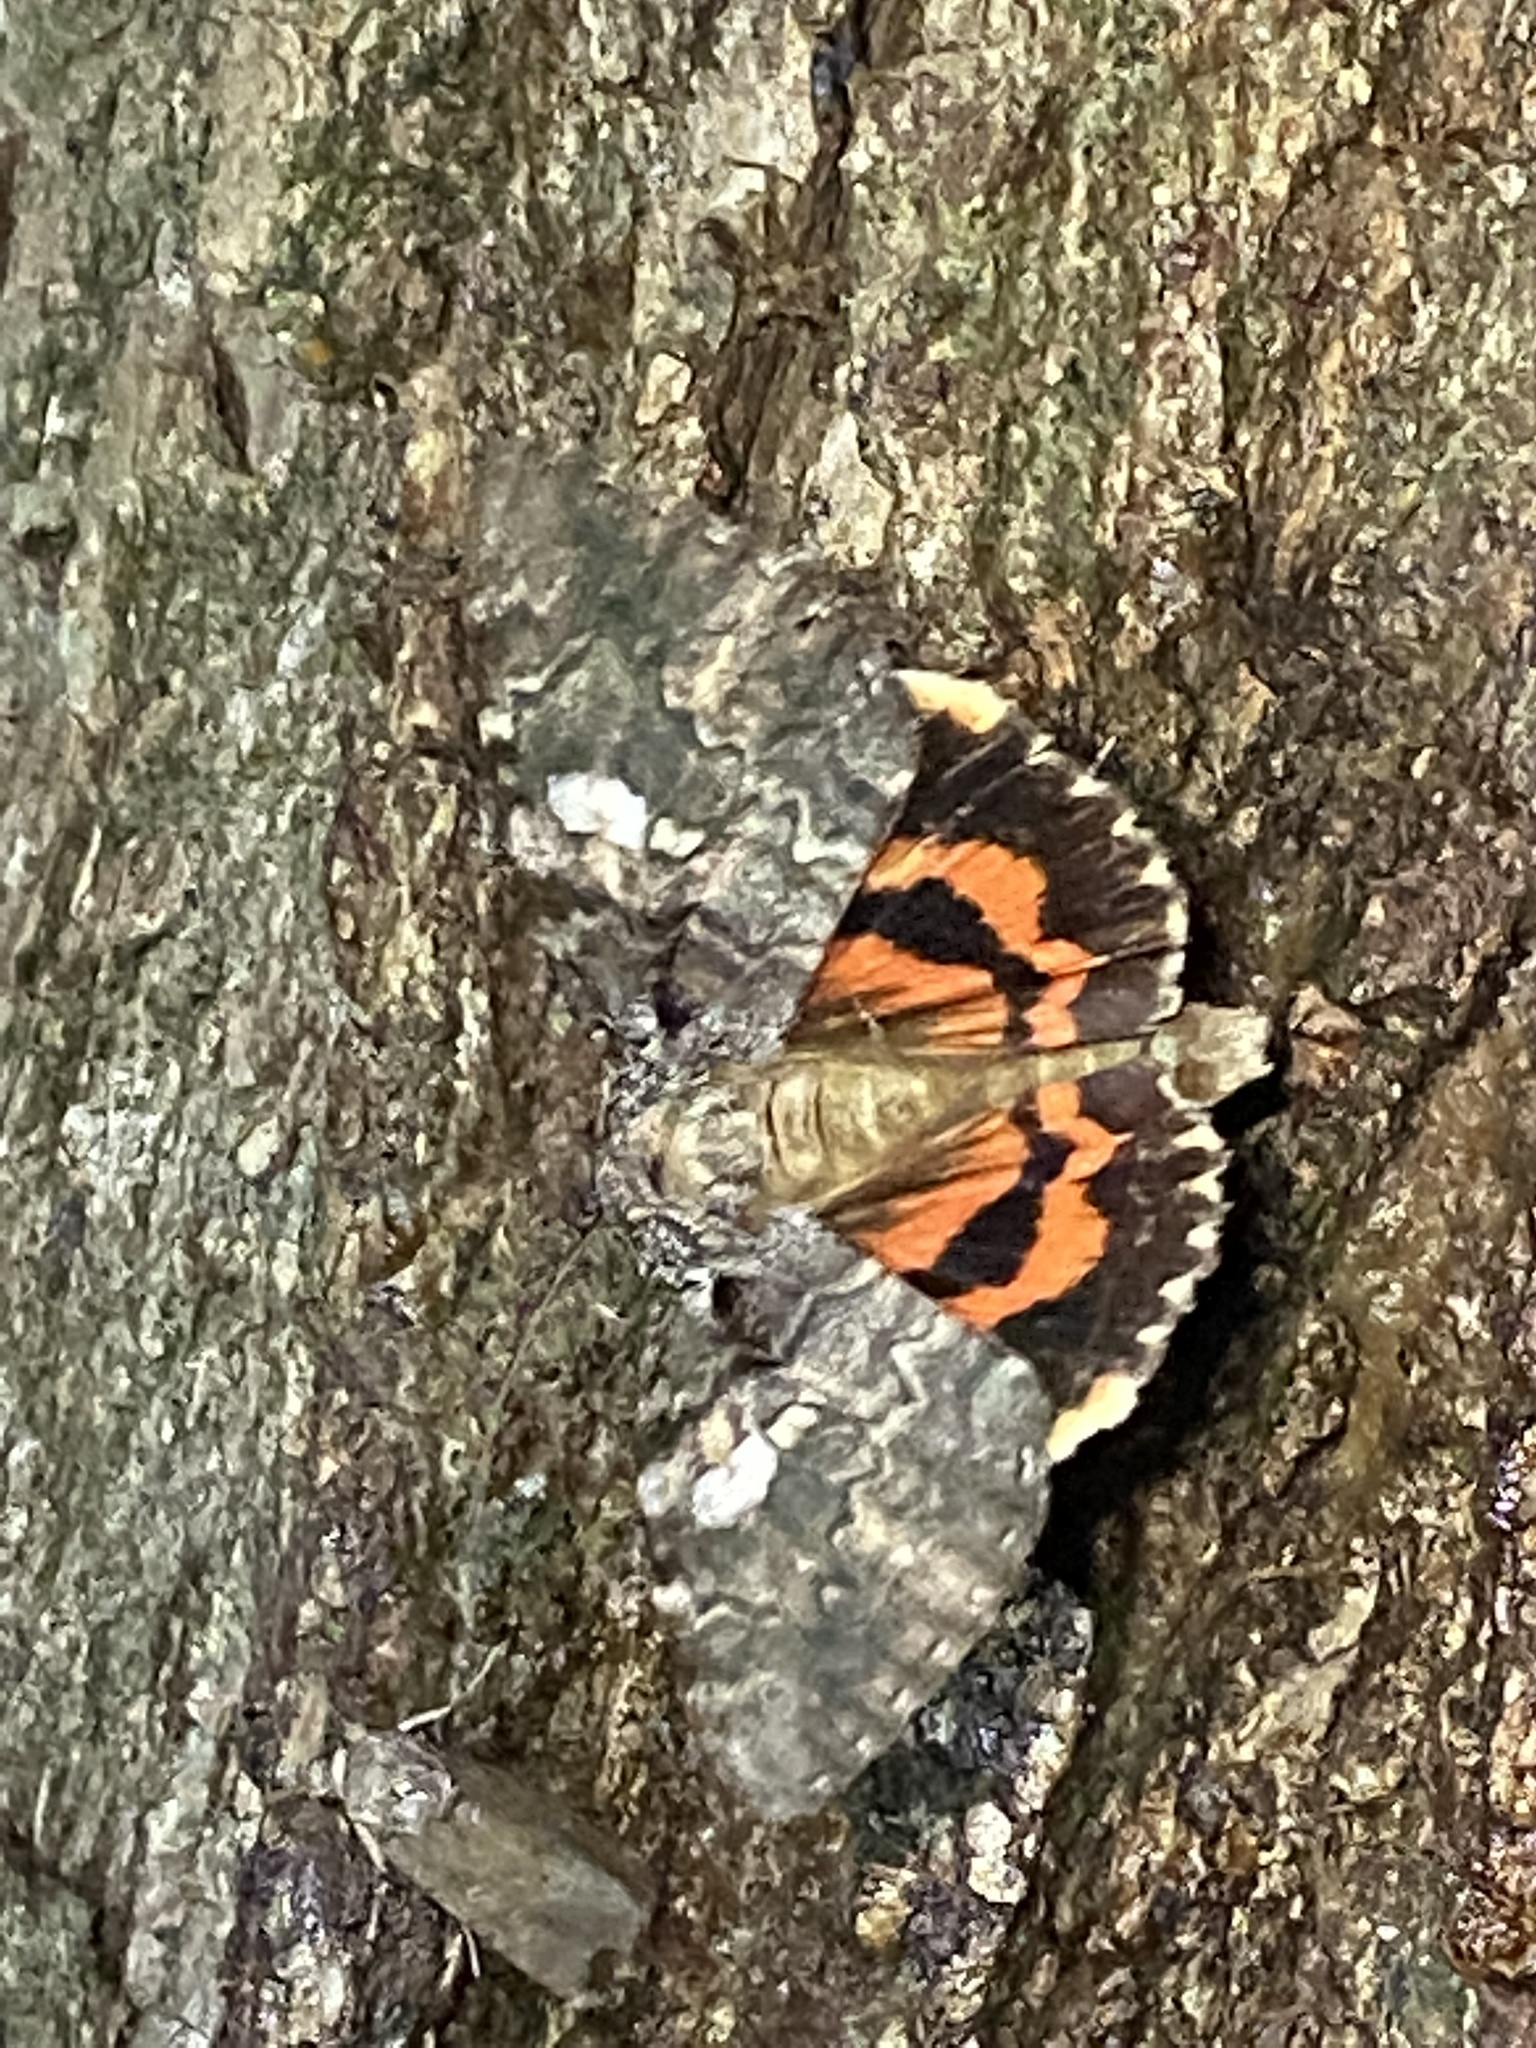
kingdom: Animalia
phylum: Arthropoda
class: Insecta
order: Lepidoptera
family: Erebidae
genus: Catocala
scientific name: Catocala ilia
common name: Ilia underwing
